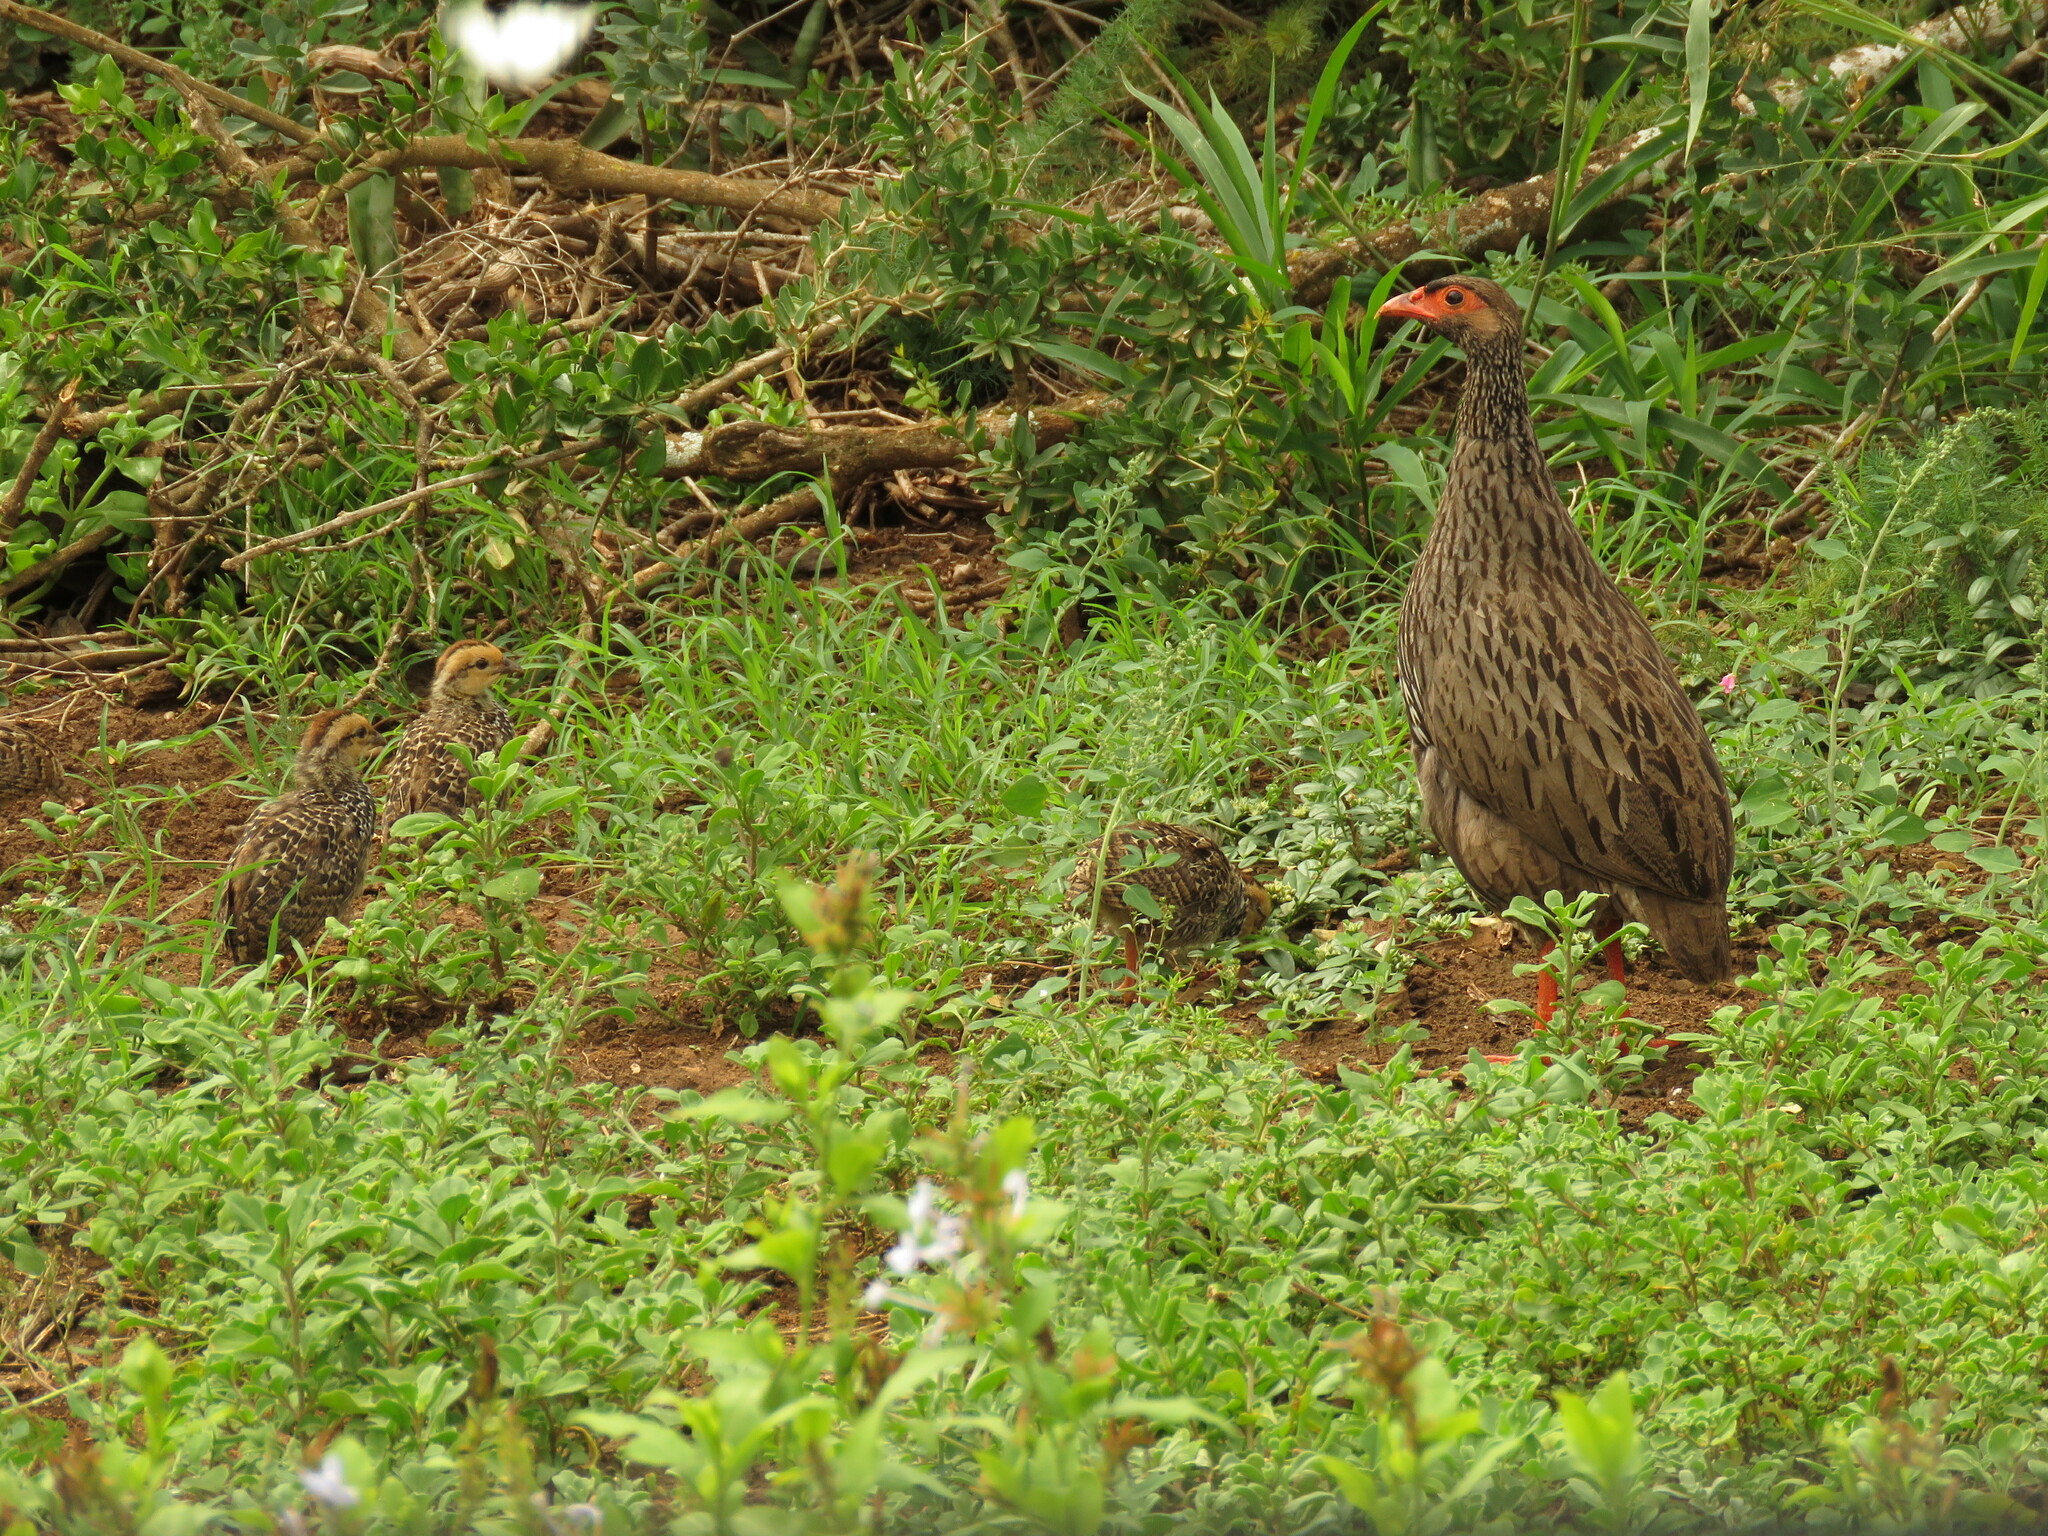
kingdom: Animalia
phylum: Chordata
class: Aves
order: Galliformes
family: Phasianidae
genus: Pternistis
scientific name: Pternistis afer
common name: Red-necked spurfowl
